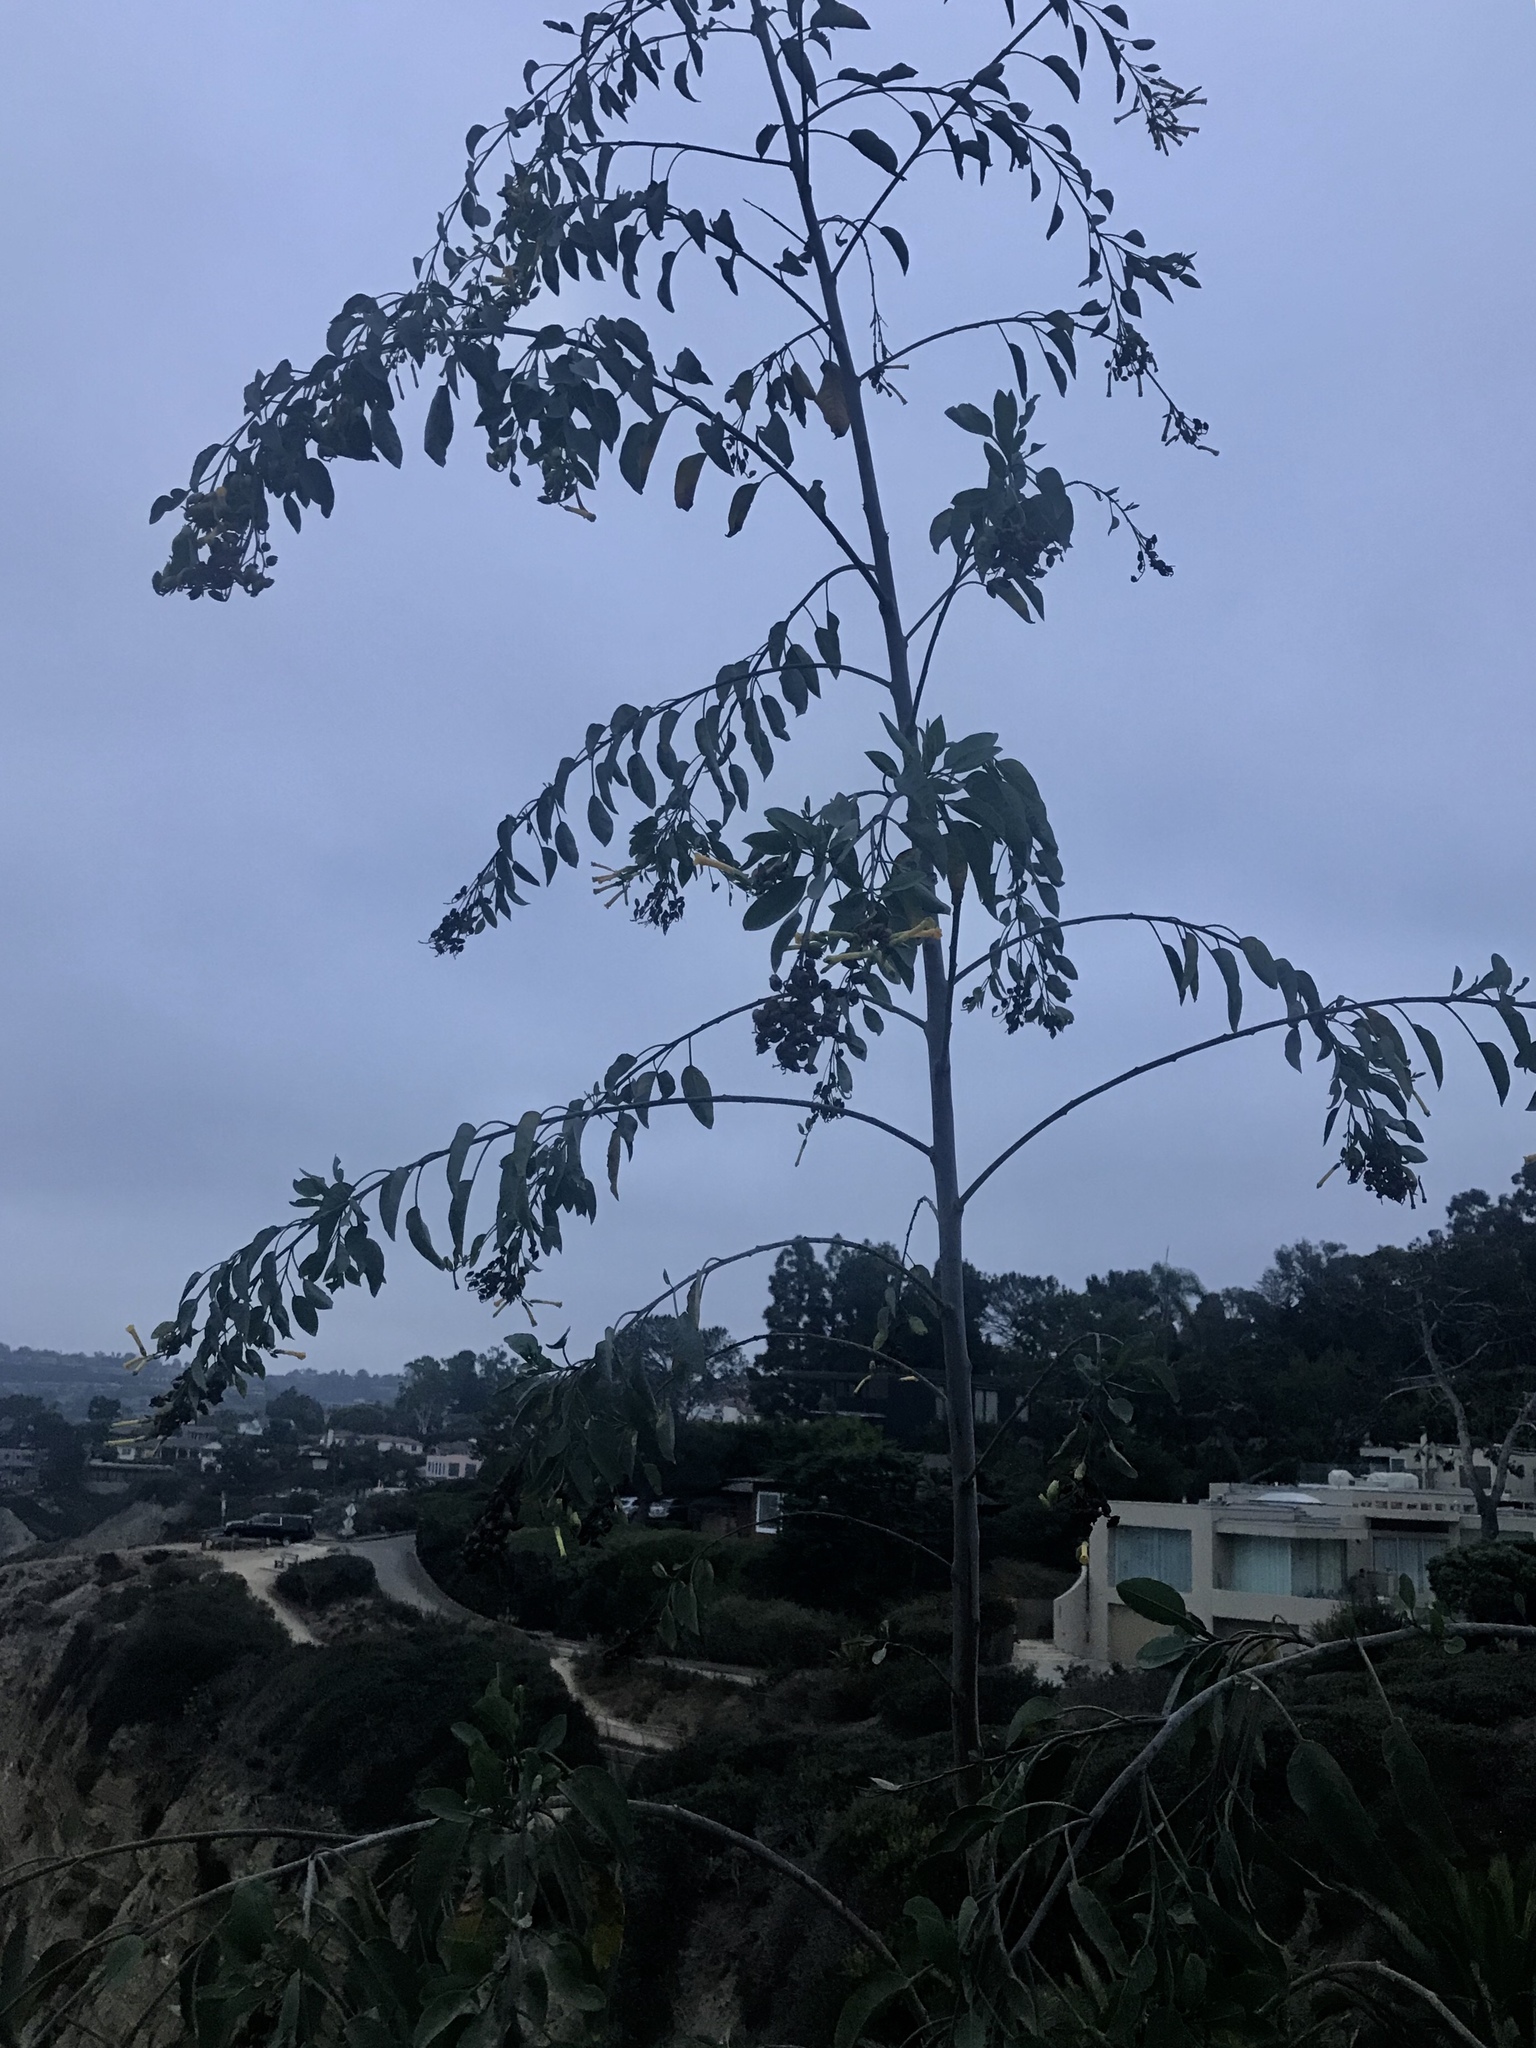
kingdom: Plantae
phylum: Tracheophyta
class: Magnoliopsida
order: Solanales
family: Solanaceae
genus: Nicotiana
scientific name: Nicotiana glauca
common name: Tree tobacco
